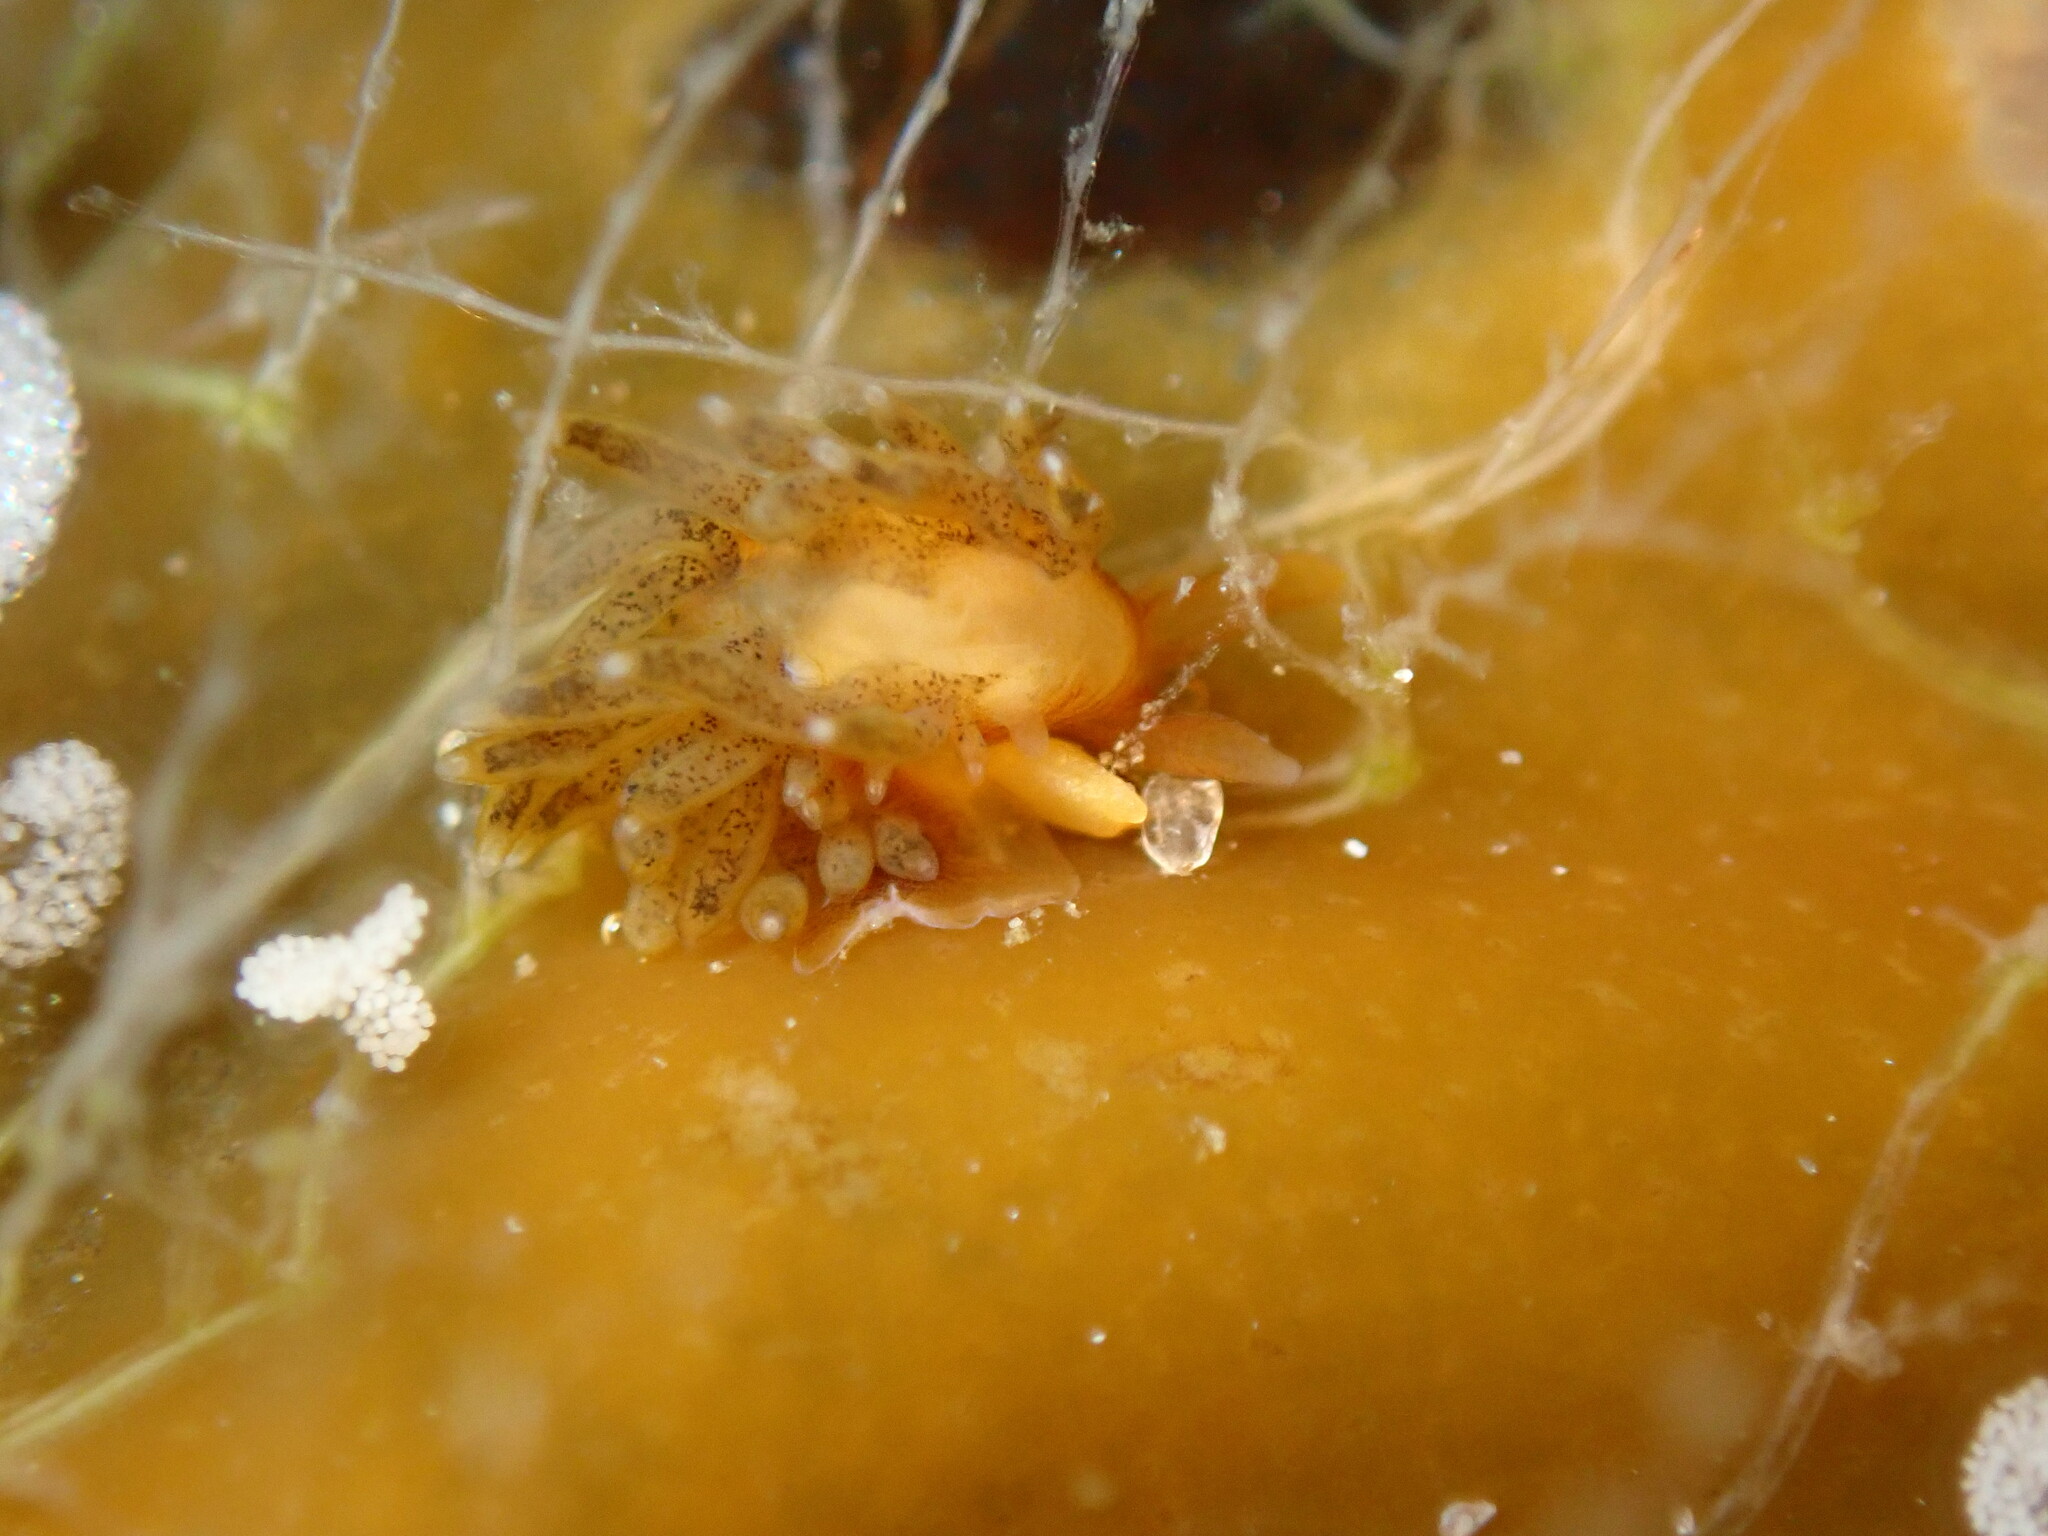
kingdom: Animalia
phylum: Mollusca
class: Gastropoda
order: Nudibranchia
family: Cuthonidae
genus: Cuthona
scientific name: Cuthona phoenix
